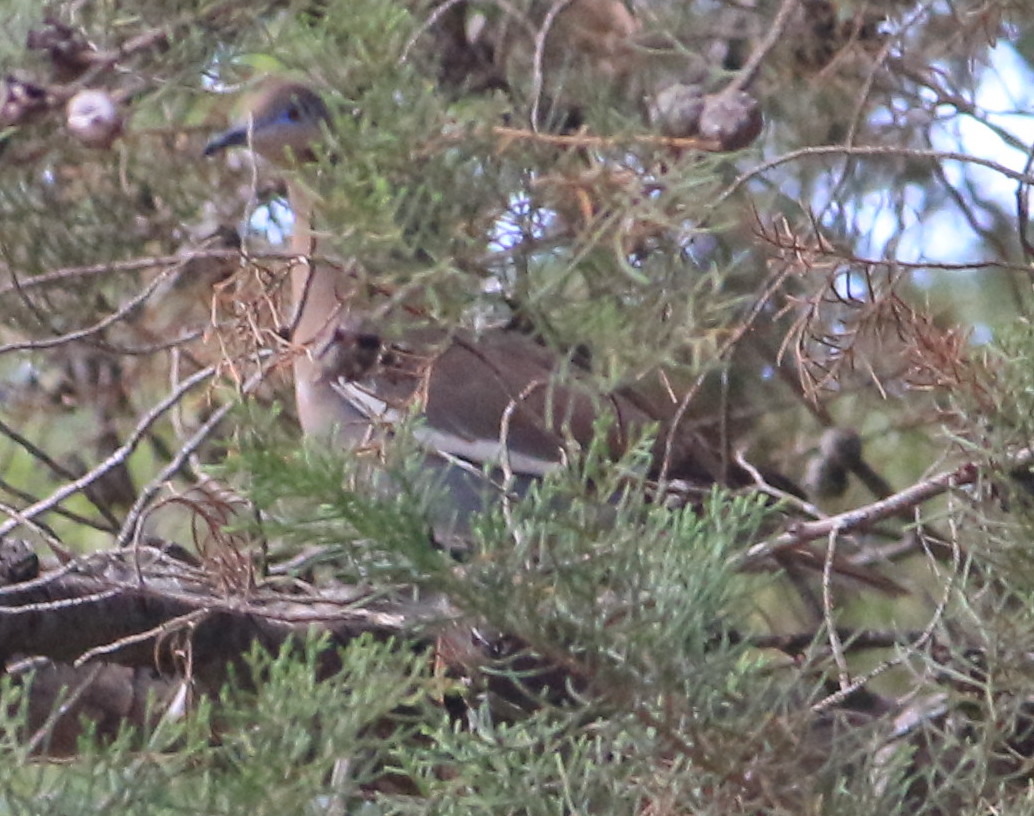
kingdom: Animalia
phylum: Chordata
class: Aves
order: Columbiformes
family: Columbidae
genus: Zenaida
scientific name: Zenaida asiatica
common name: White-winged dove
